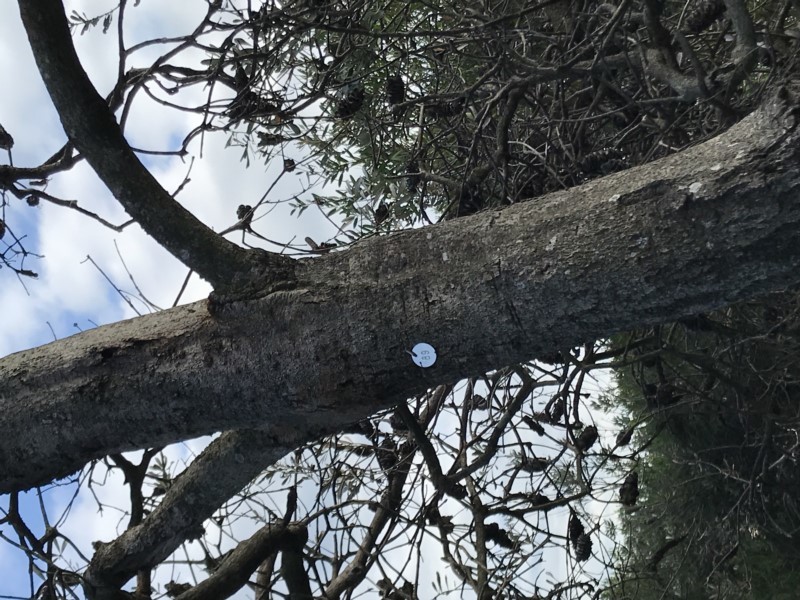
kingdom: Plantae
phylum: Tracheophyta
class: Magnoliopsida
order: Proteales
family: Proteaceae
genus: Banksia
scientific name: Banksia integrifolia
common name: White-honeysuckle
